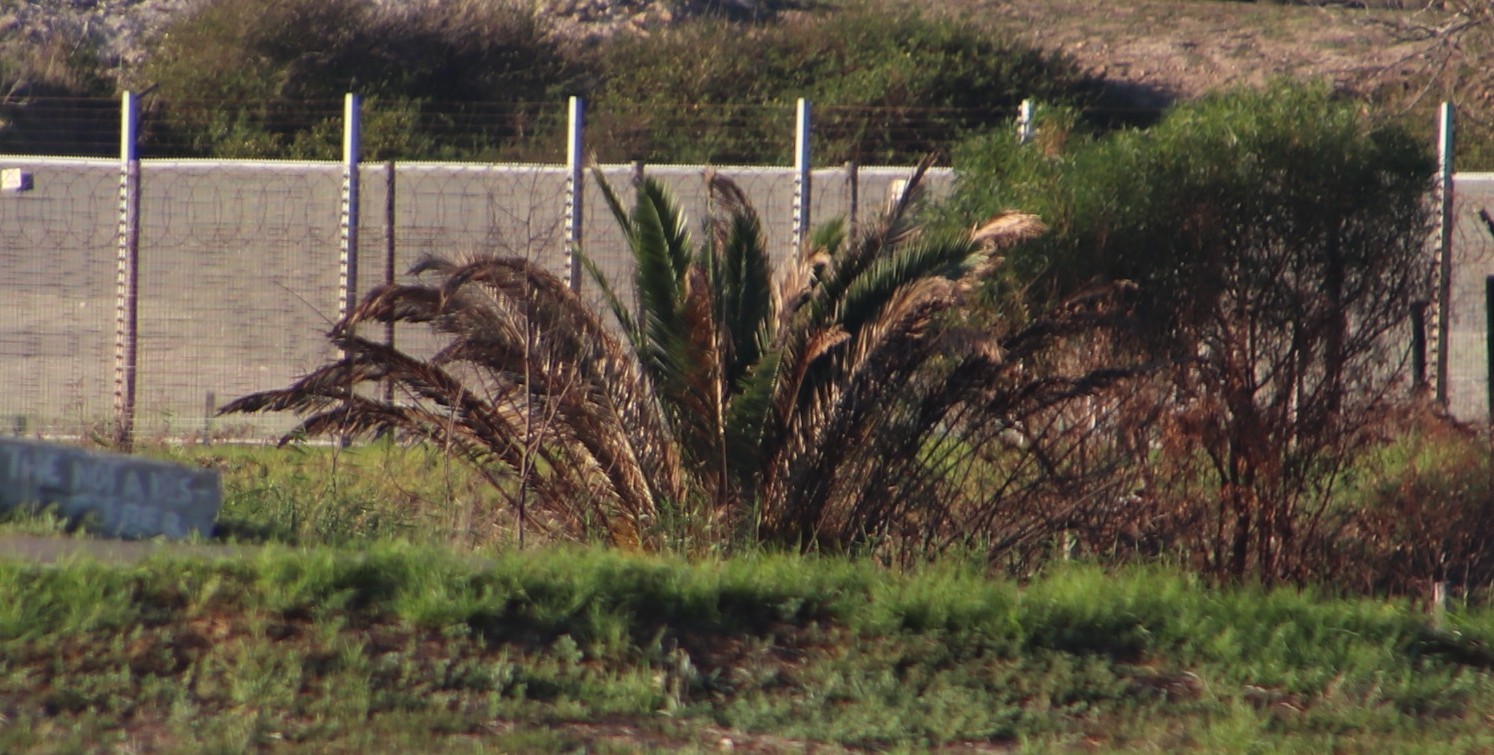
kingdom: Plantae
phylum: Tracheophyta
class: Liliopsida
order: Arecales
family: Arecaceae
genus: Phoenix
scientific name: Phoenix canariensis
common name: Canary island date palm
